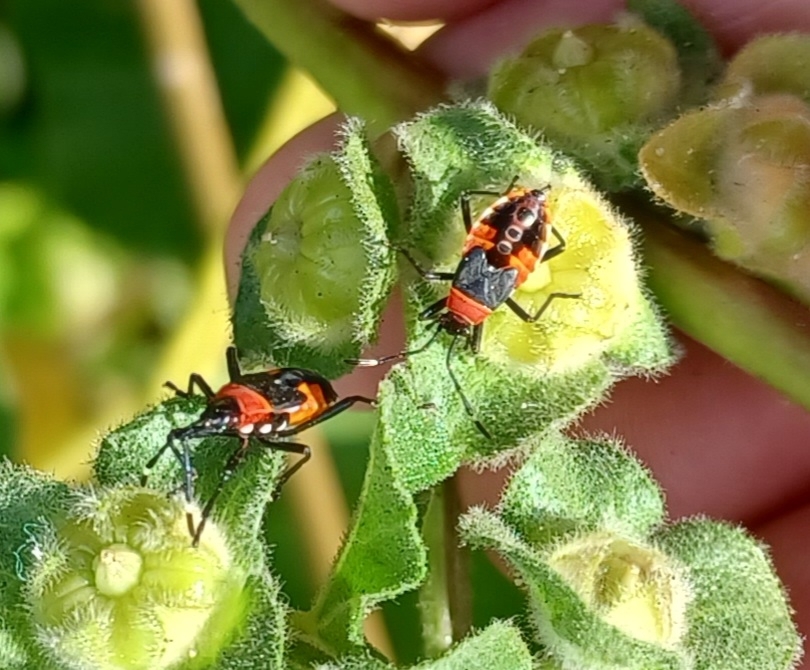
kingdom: Animalia
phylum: Arthropoda
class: Insecta
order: Hemiptera
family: Pyrrhocoridae
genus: Dindymus
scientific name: Dindymus
